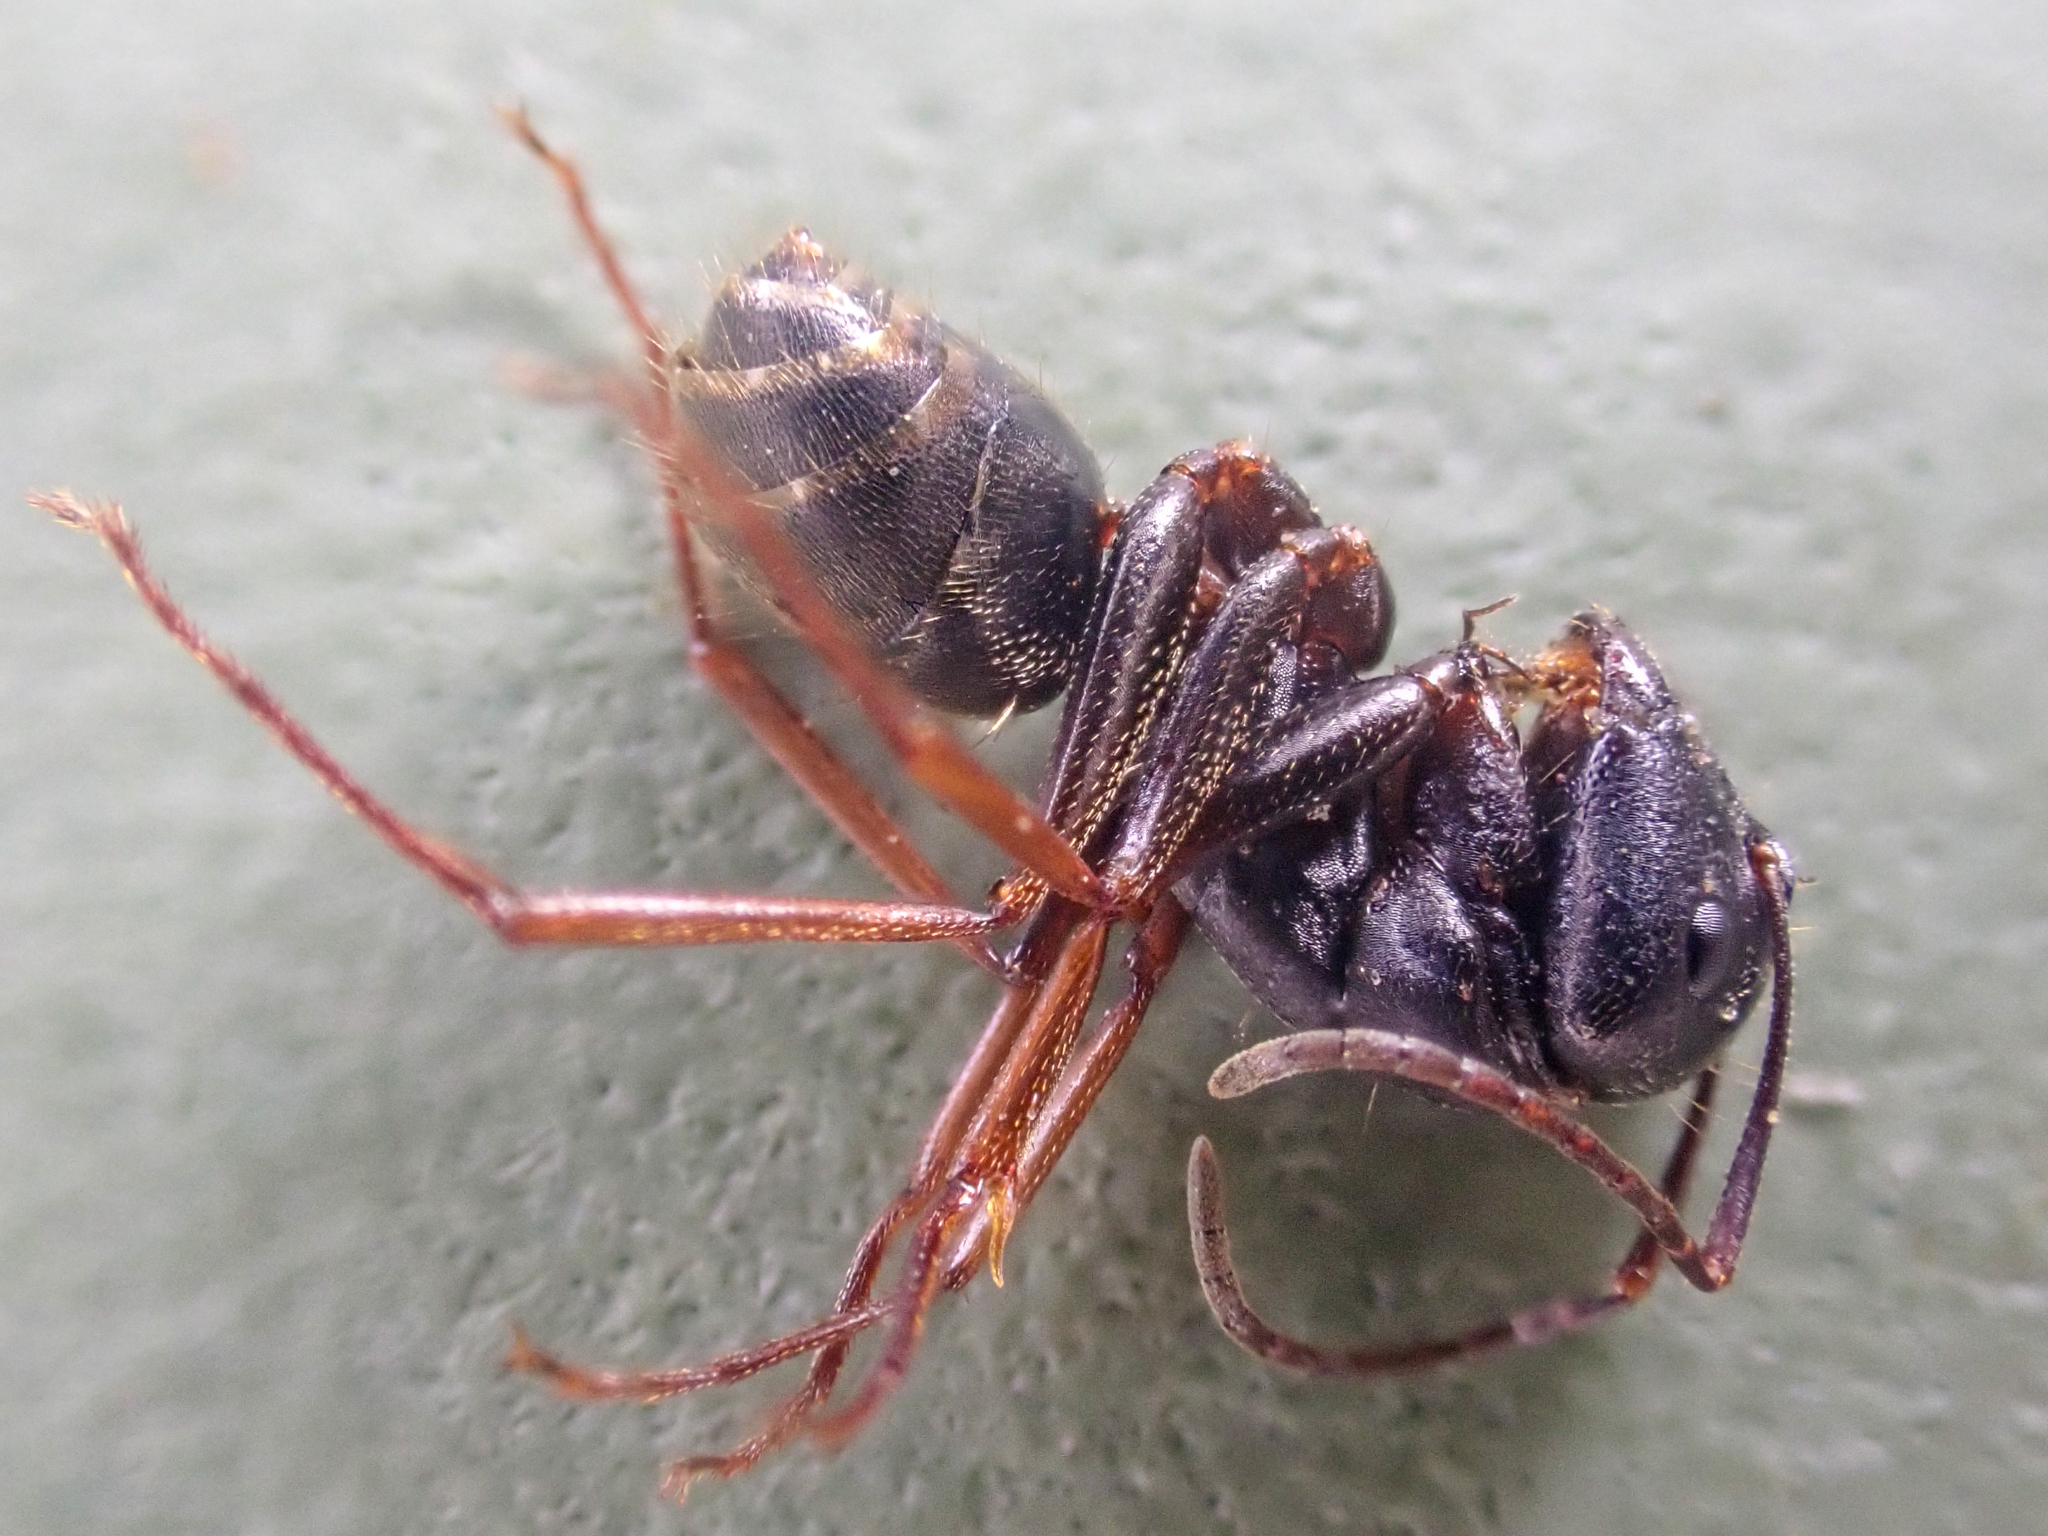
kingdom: Animalia
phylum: Arthropoda
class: Insecta
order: Hymenoptera
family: Formicidae
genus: Camponotus
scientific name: Camponotus modoc
